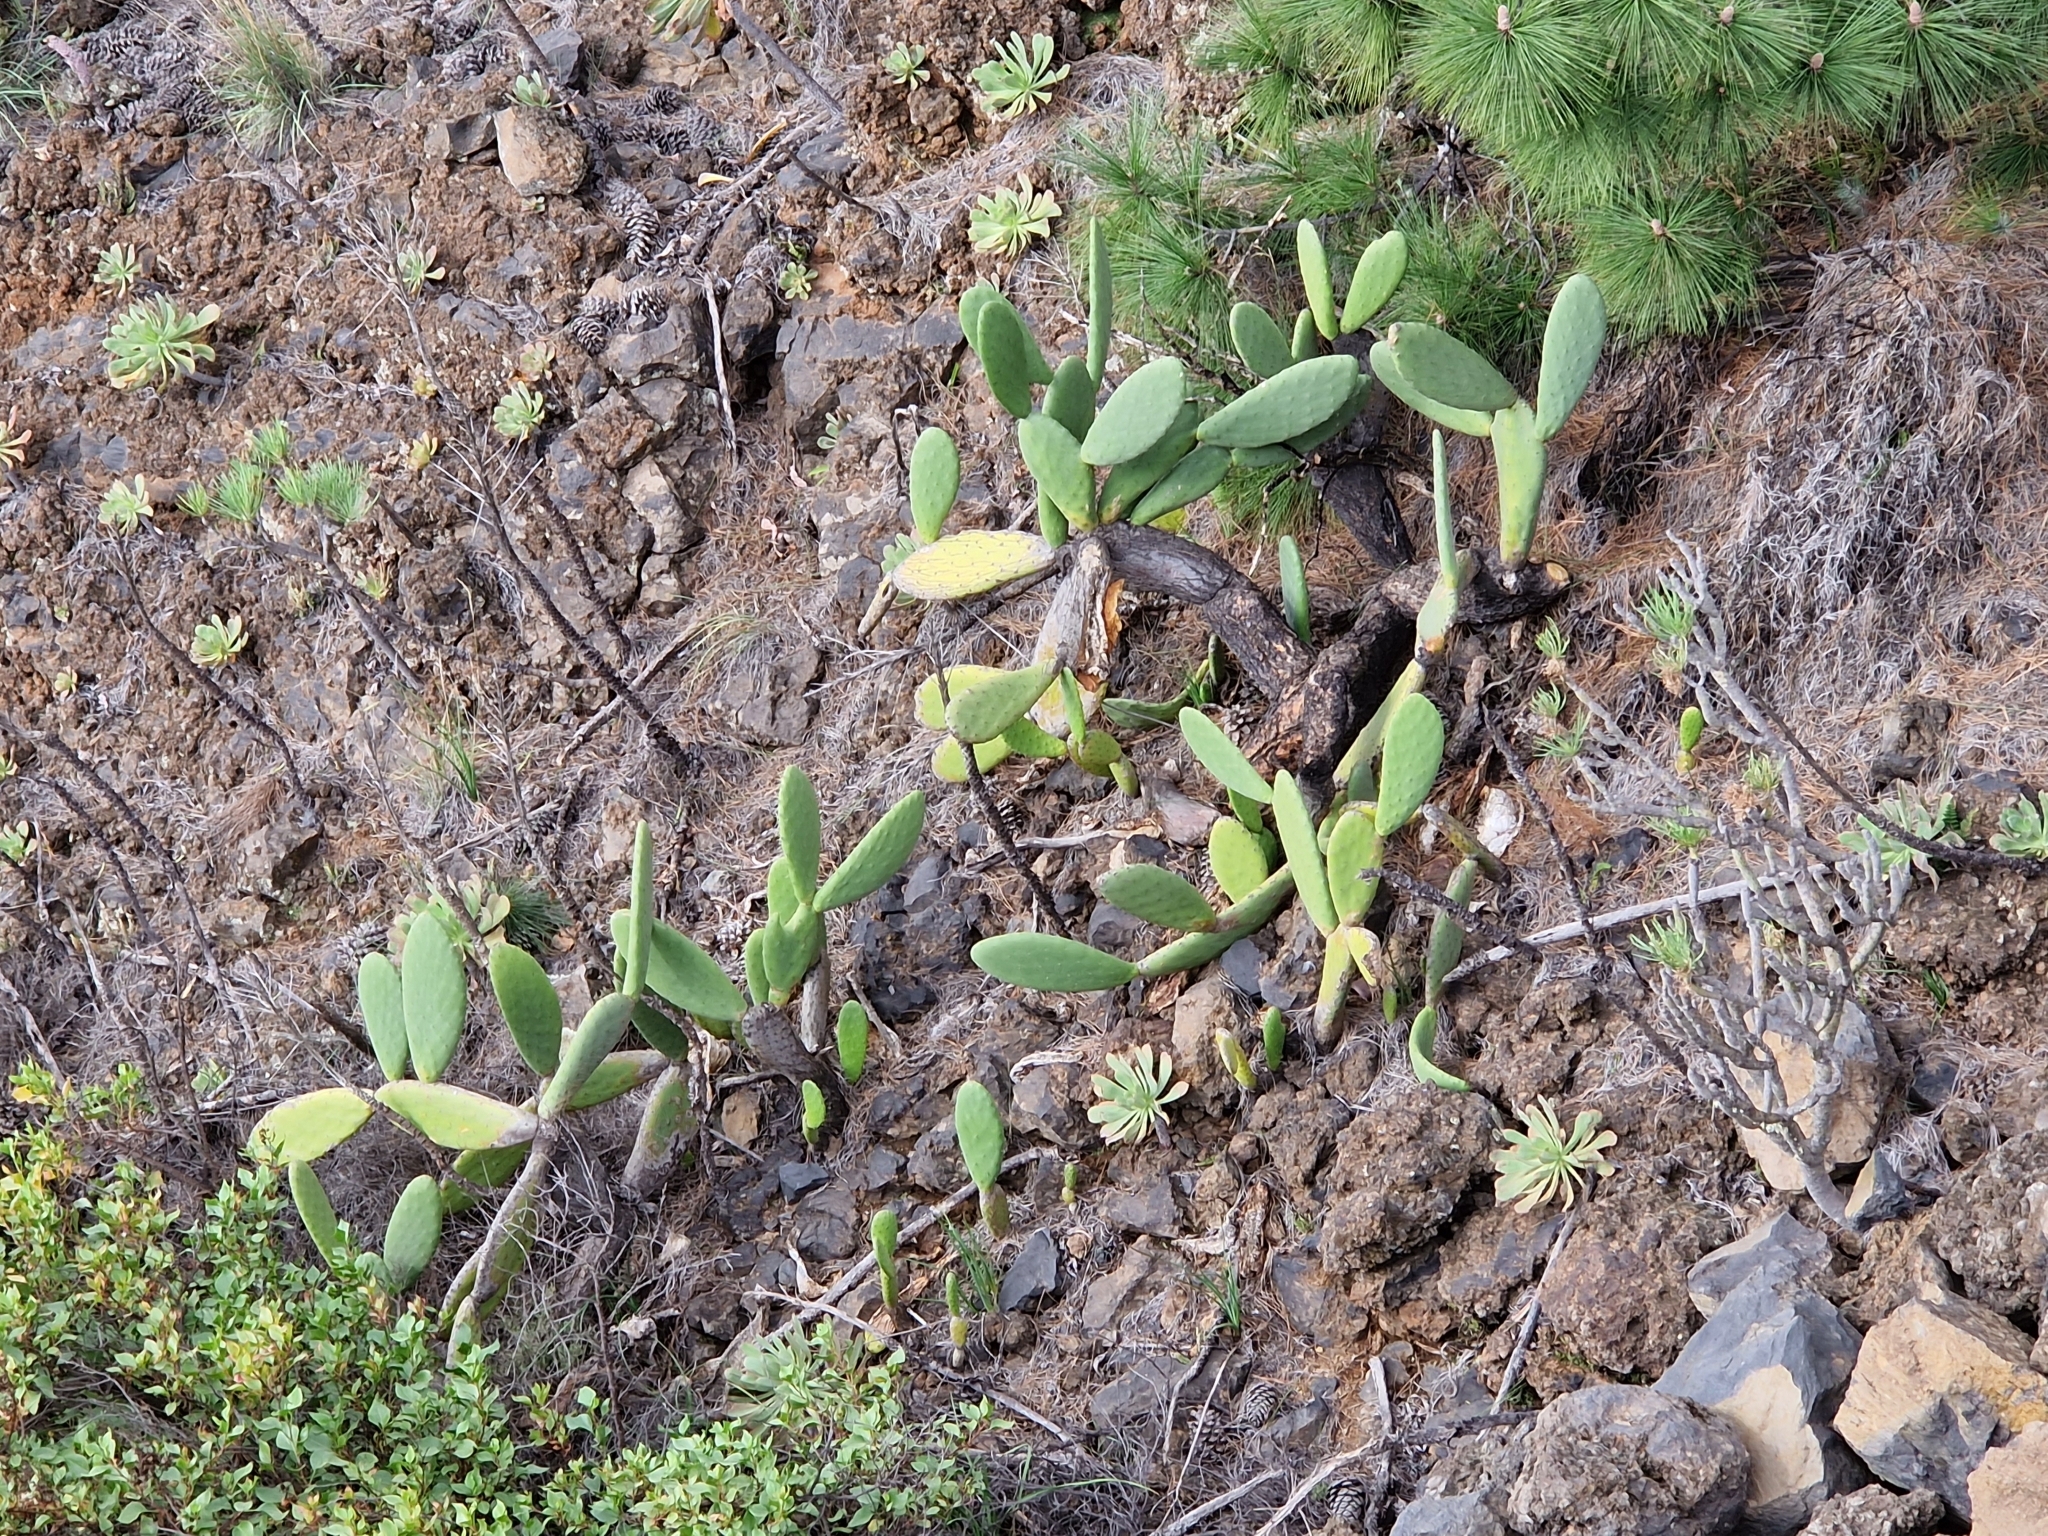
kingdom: Plantae
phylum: Tracheophyta
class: Magnoliopsida
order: Caryophyllales
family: Cactaceae
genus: Opuntia
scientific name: Opuntia ficus-indica
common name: Barbary fig
